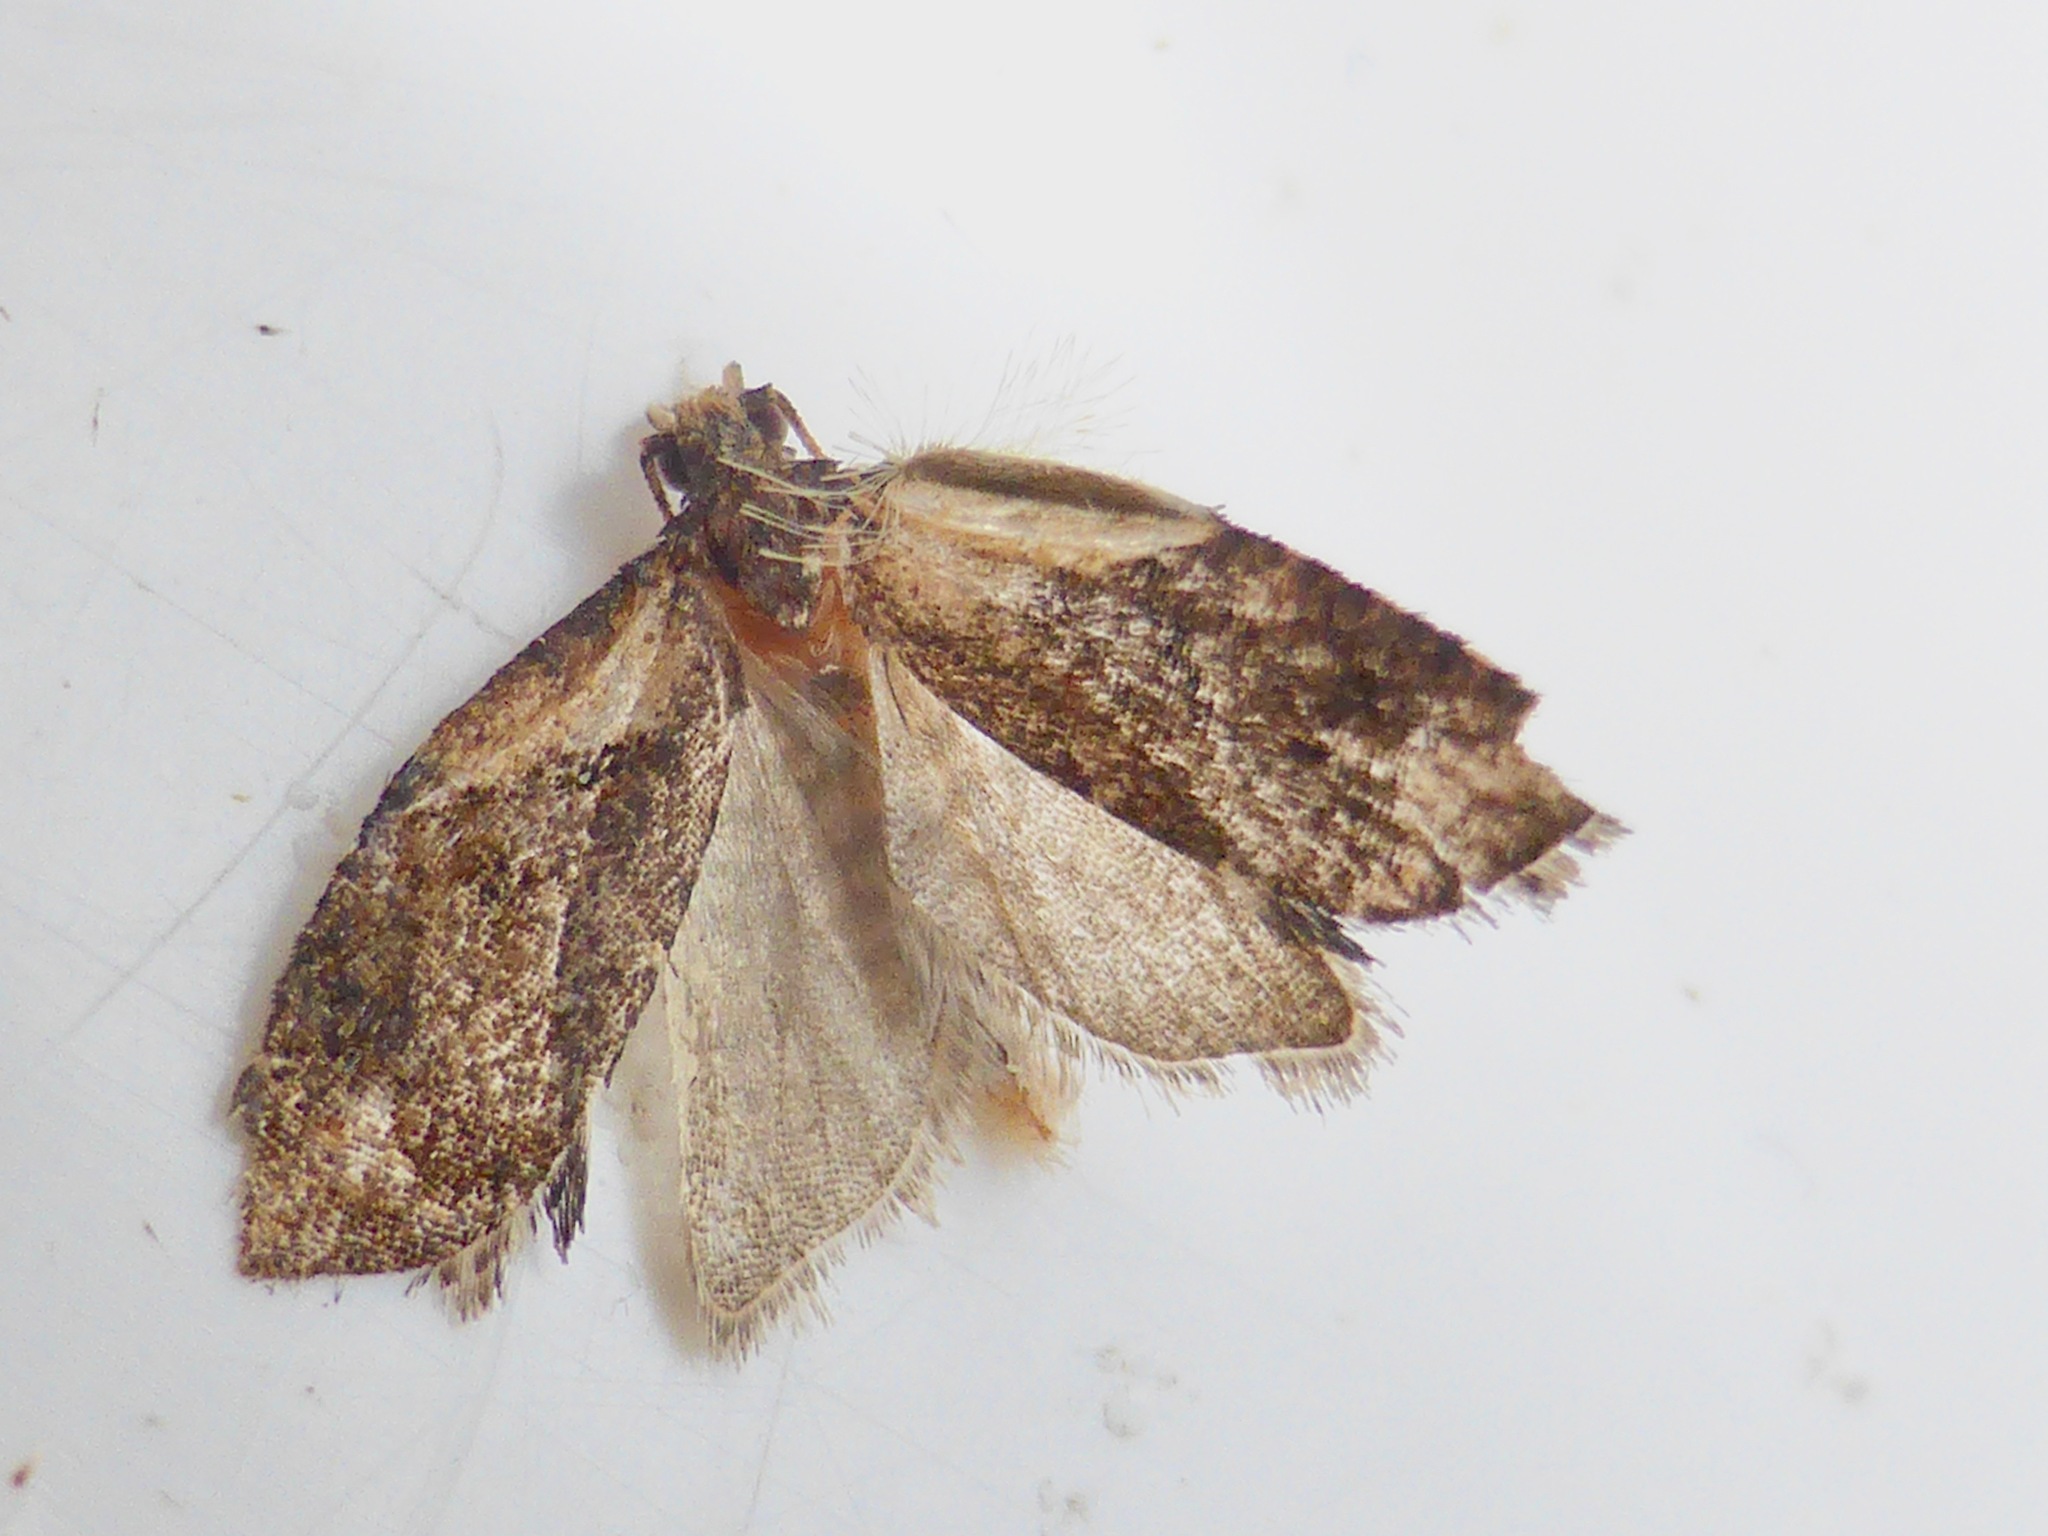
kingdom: Animalia
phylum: Arthropoda
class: Insecta
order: Lepidoptera
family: Tortricidae
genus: Capua
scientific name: Capua intractana
